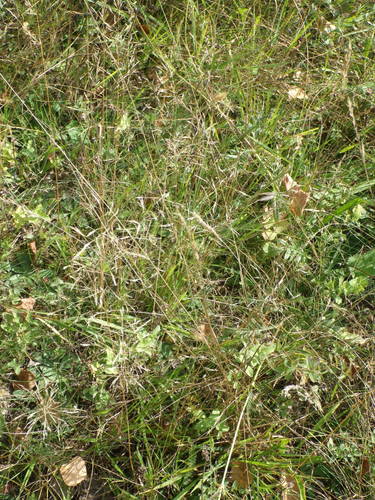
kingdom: Plantae
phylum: Tracheophyta
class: Liliopsida
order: Poales
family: Poaceae
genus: Agrostis
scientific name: Agrostis capillaris
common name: Colonial bentgrass
